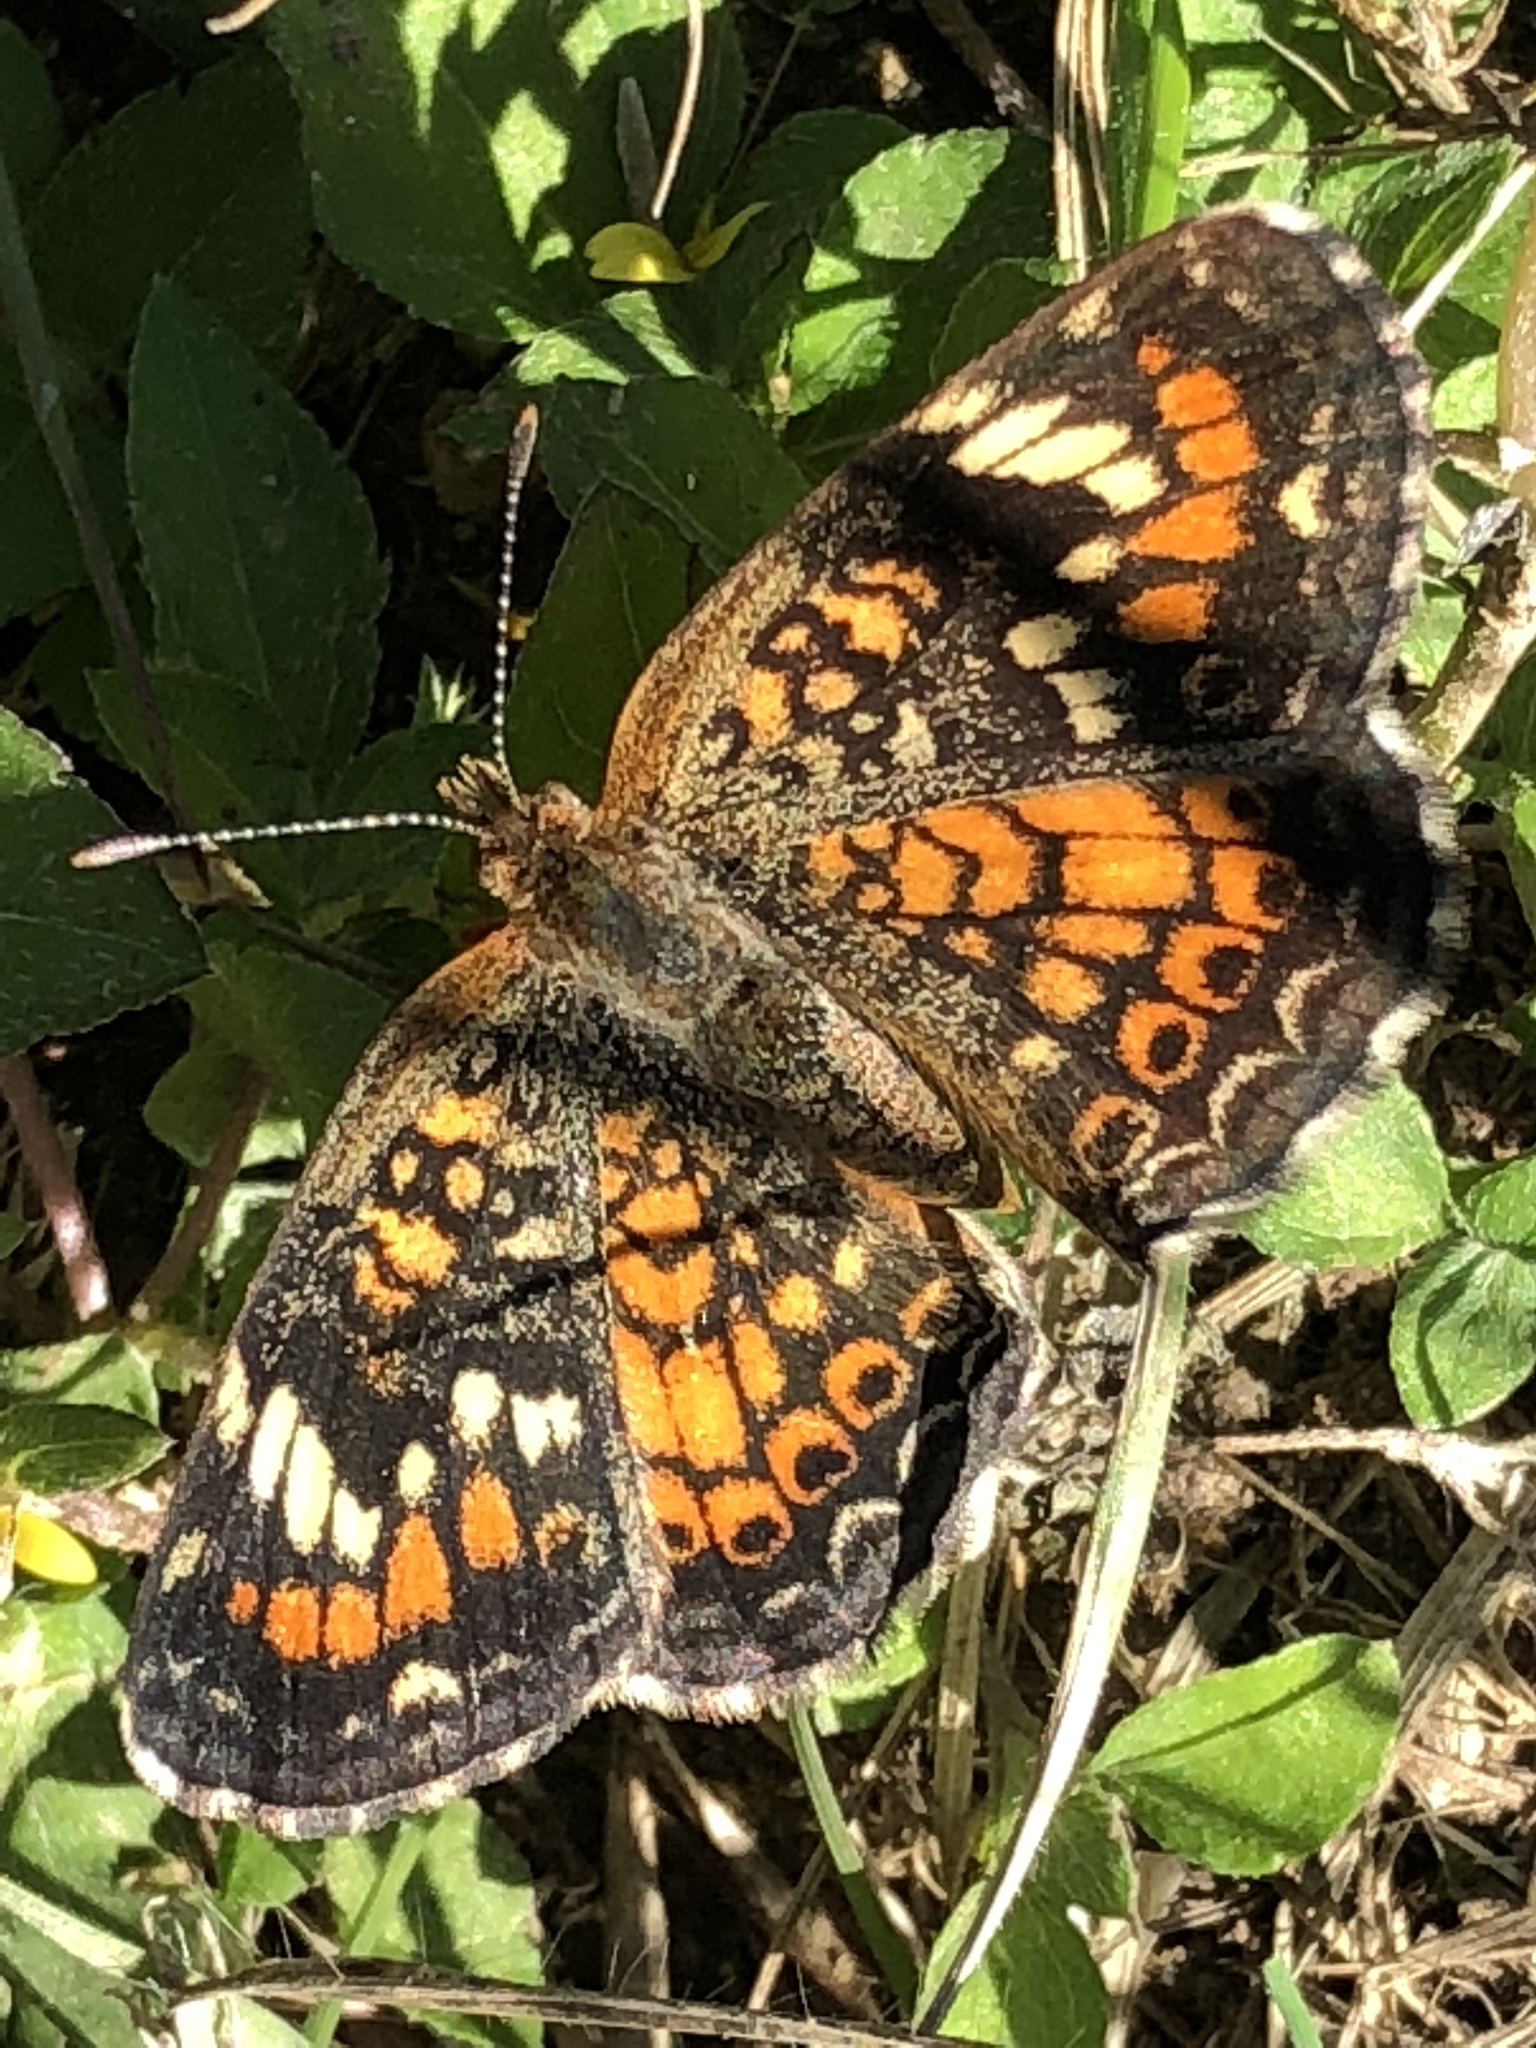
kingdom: Animalia
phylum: Arthropoda
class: Insecta
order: Lepidoptera
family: Nymphalidae
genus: Phyciodes
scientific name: Phyciodes phaon
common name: Phaon crescent
